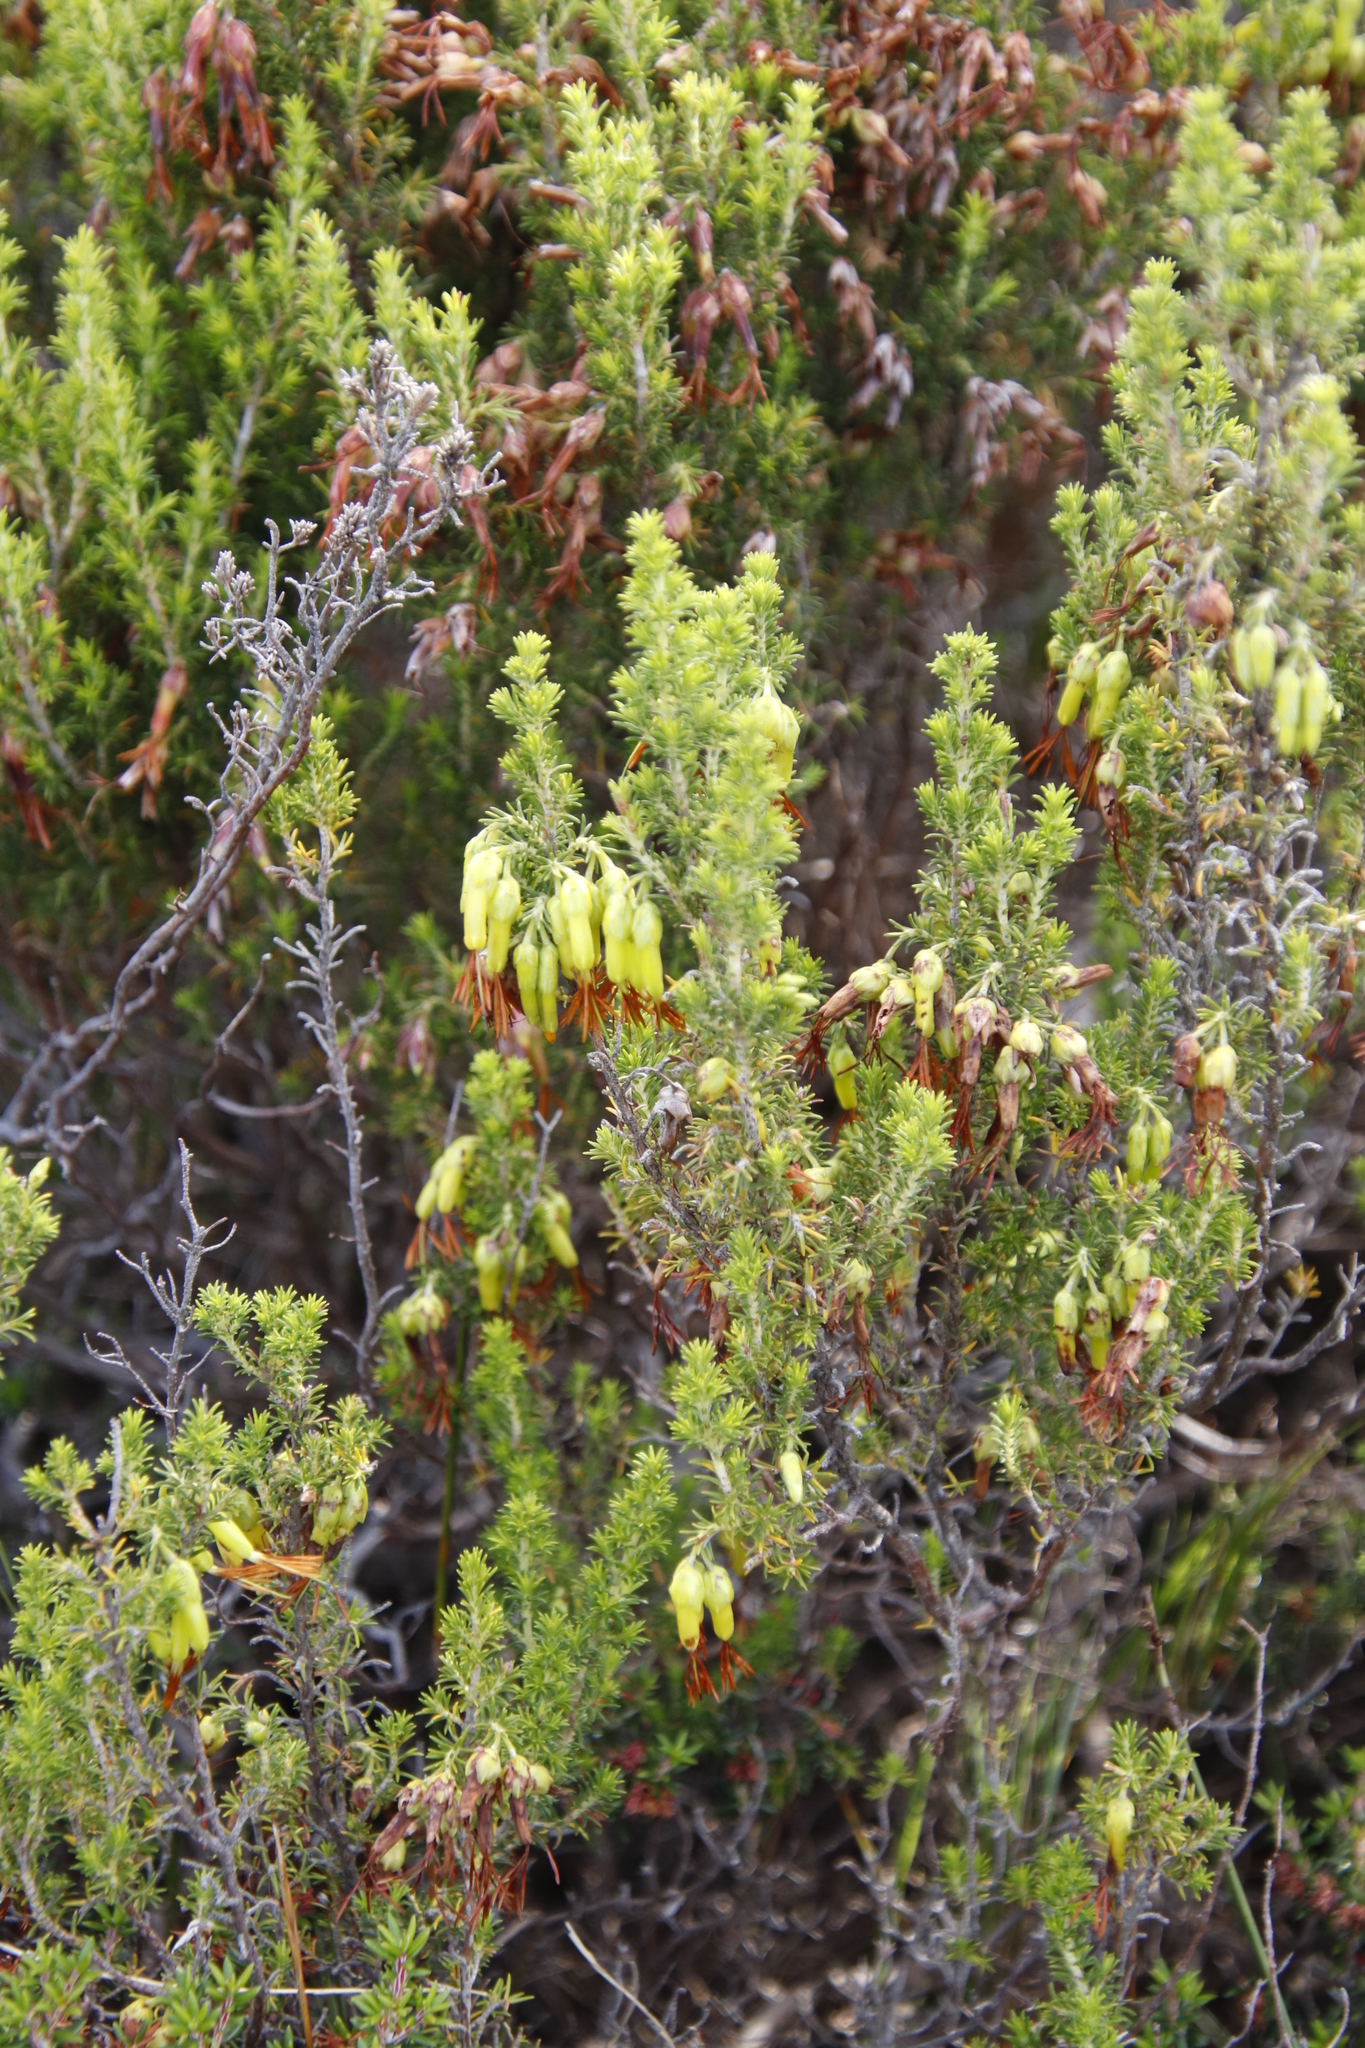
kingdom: Plantae
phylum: Tracheophyta
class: Magnoliopsida
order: Ericales
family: Ericaceae
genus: Erica
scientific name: Erica coccinea
